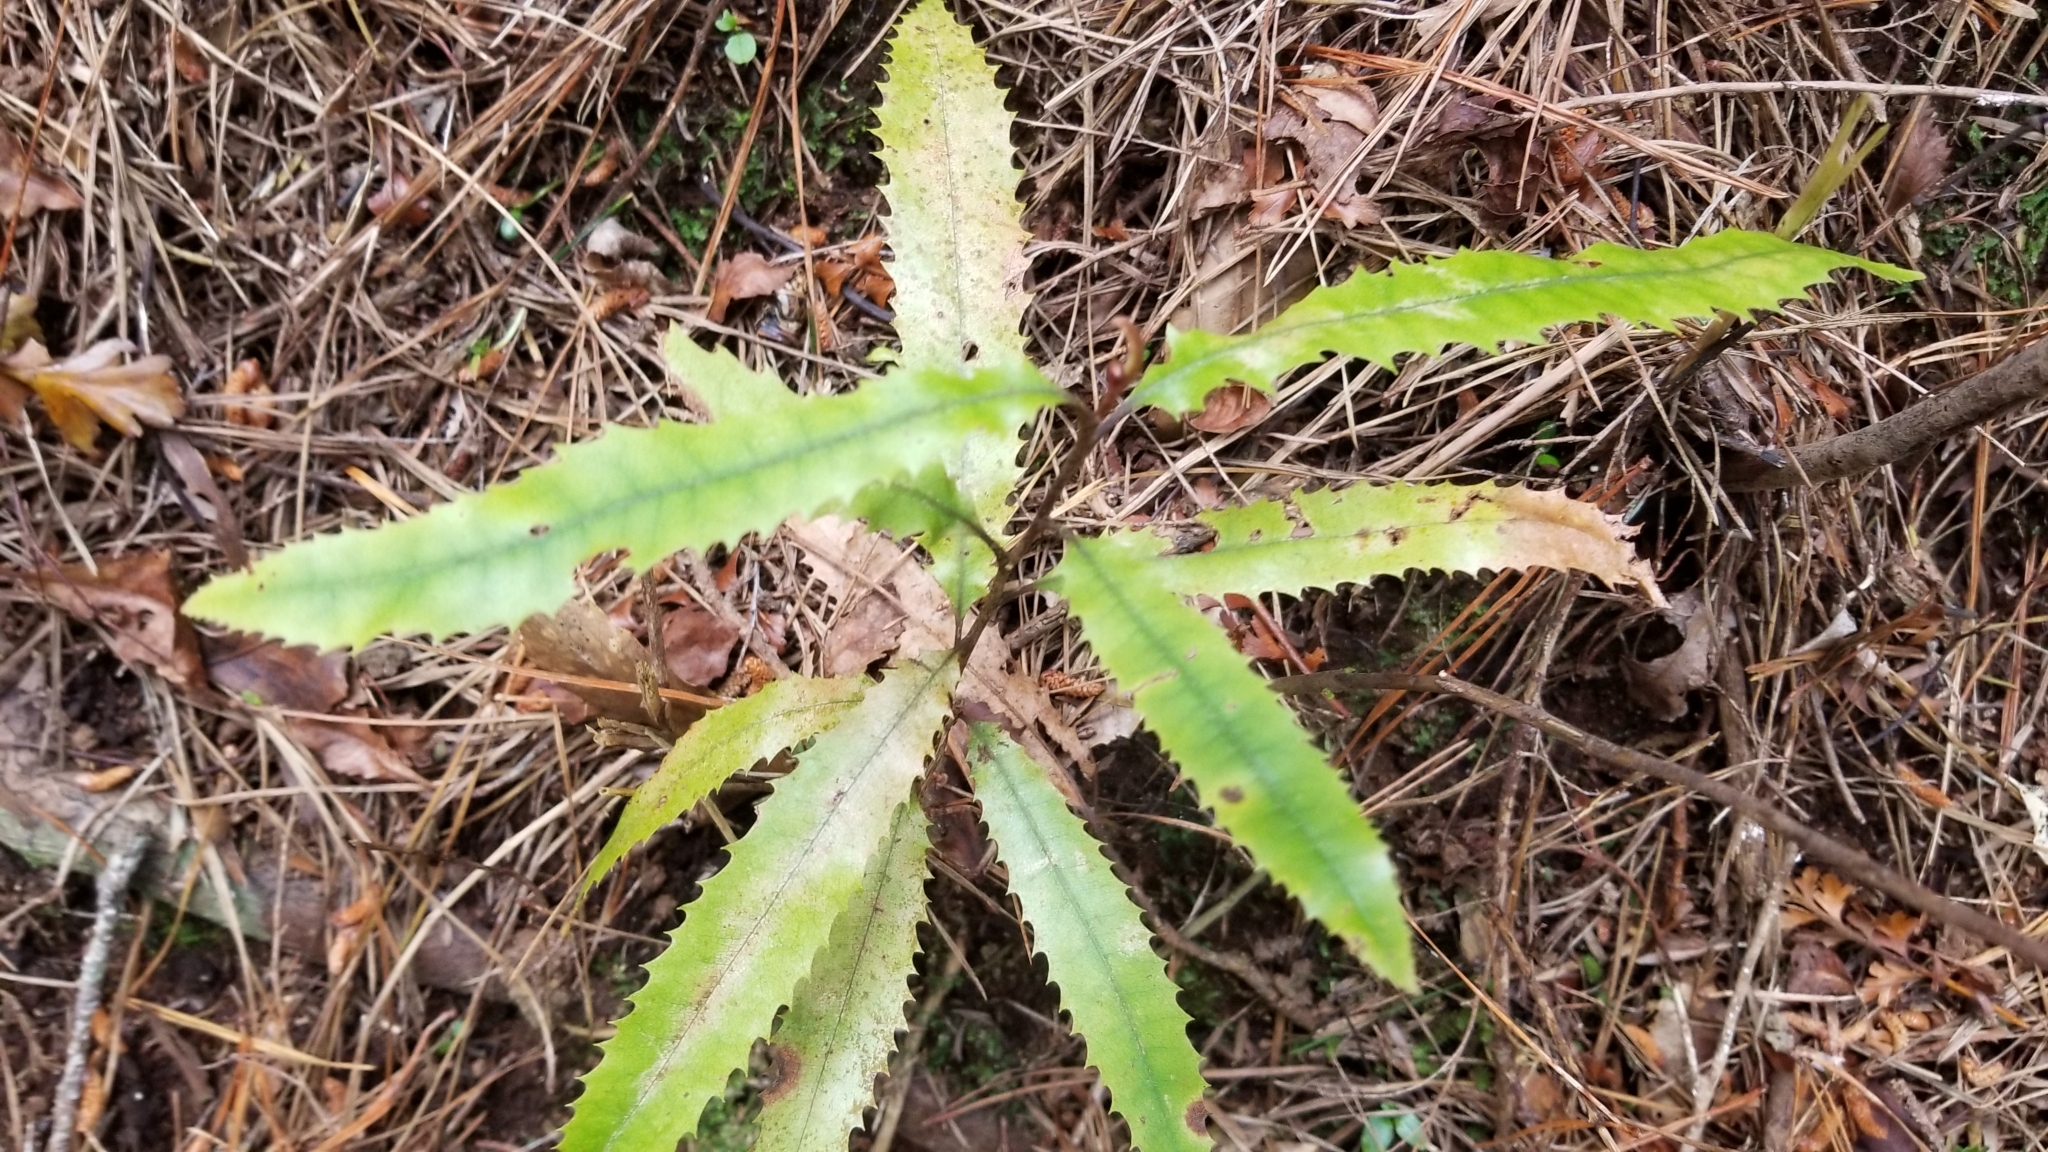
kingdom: Plantae
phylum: Tracheophyta
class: Magnoliopsida
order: Proteales
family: Proteaceae
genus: Knightia
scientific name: Knightia excelsa
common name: New zealand-honeysuckle
